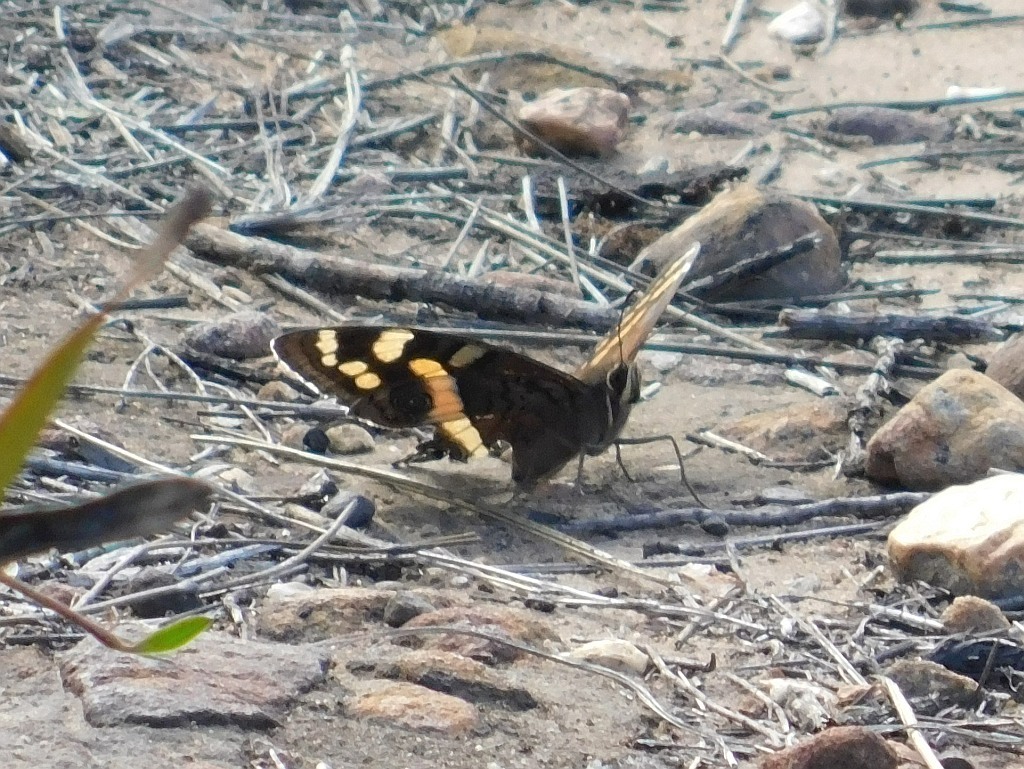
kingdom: Animalia
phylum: Arthropoda
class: Insecta
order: Lepidoptera
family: Nymphalidae
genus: Meneris
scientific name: Meneris Aeropetes tulbaghia
